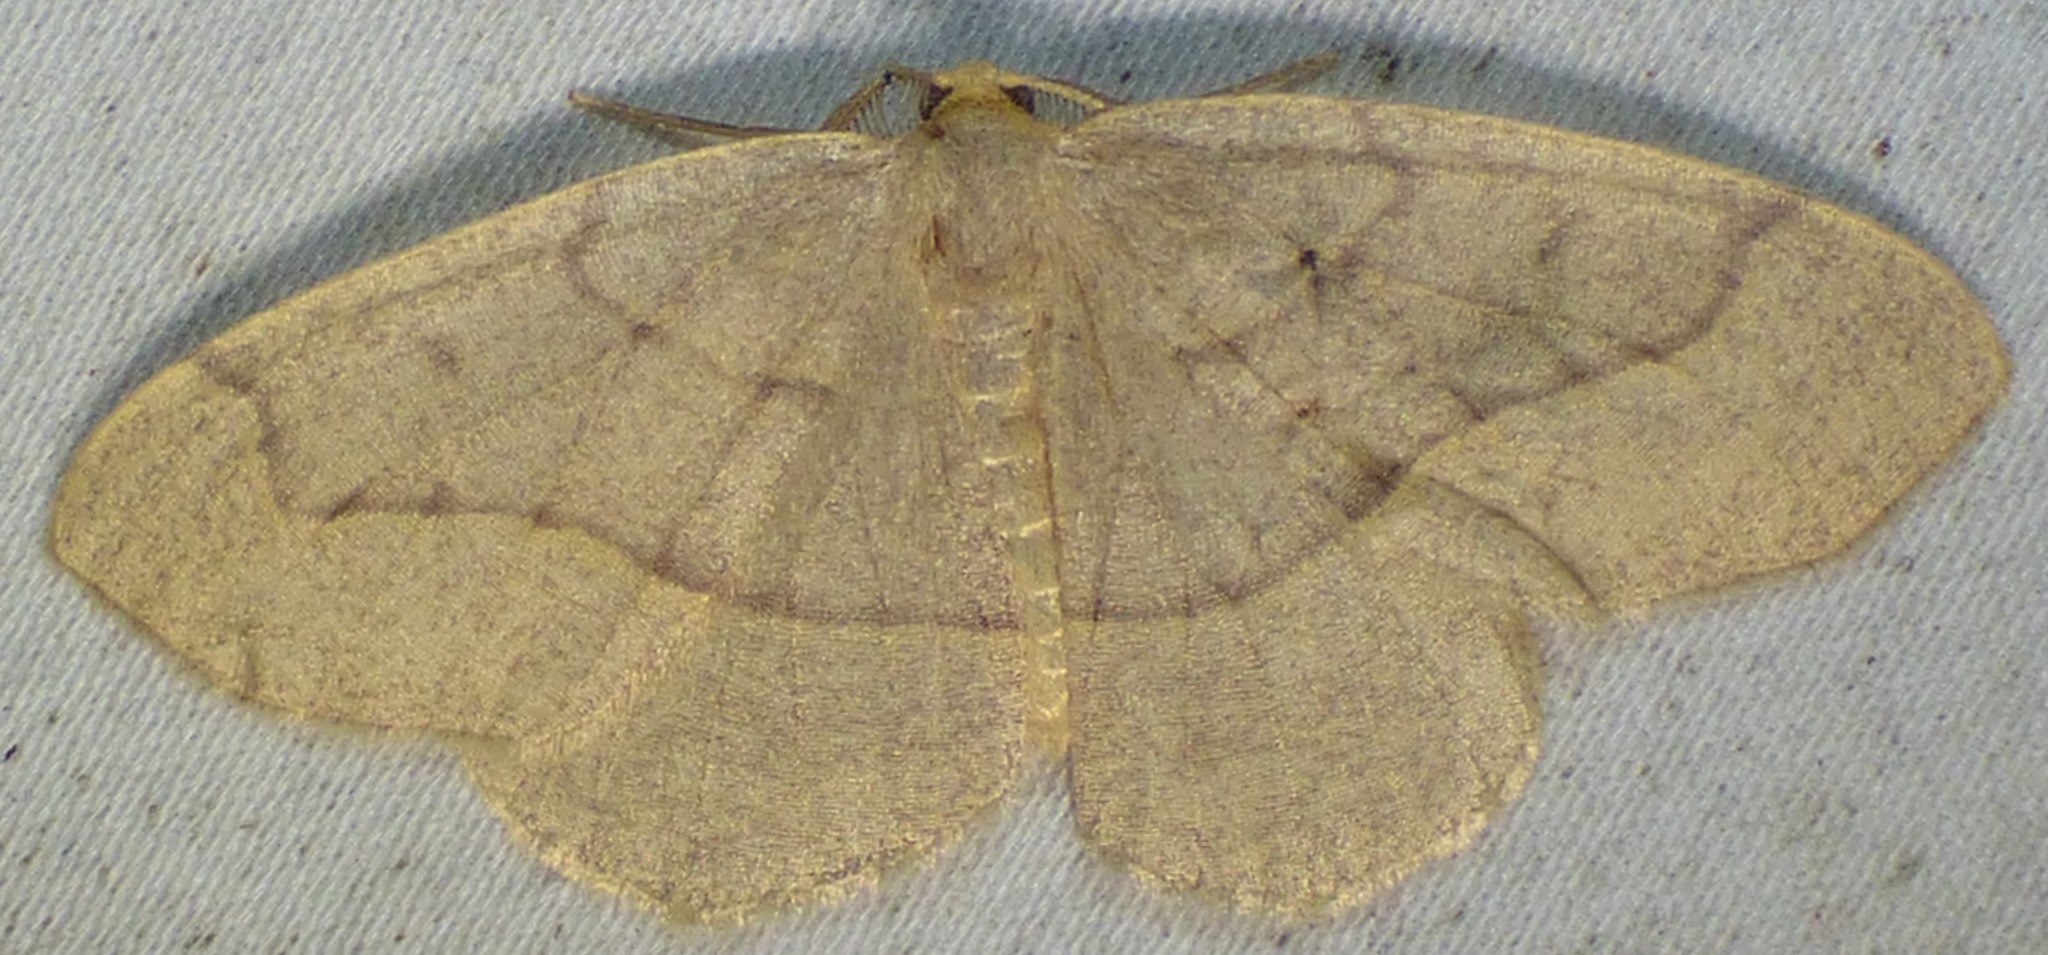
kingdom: Animalia
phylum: Arthropoda
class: Insecta
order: Lepidoptera
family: Geometridae
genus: Lambdina
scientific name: Lambdina fervidaria
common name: Curve-lined looper moth
